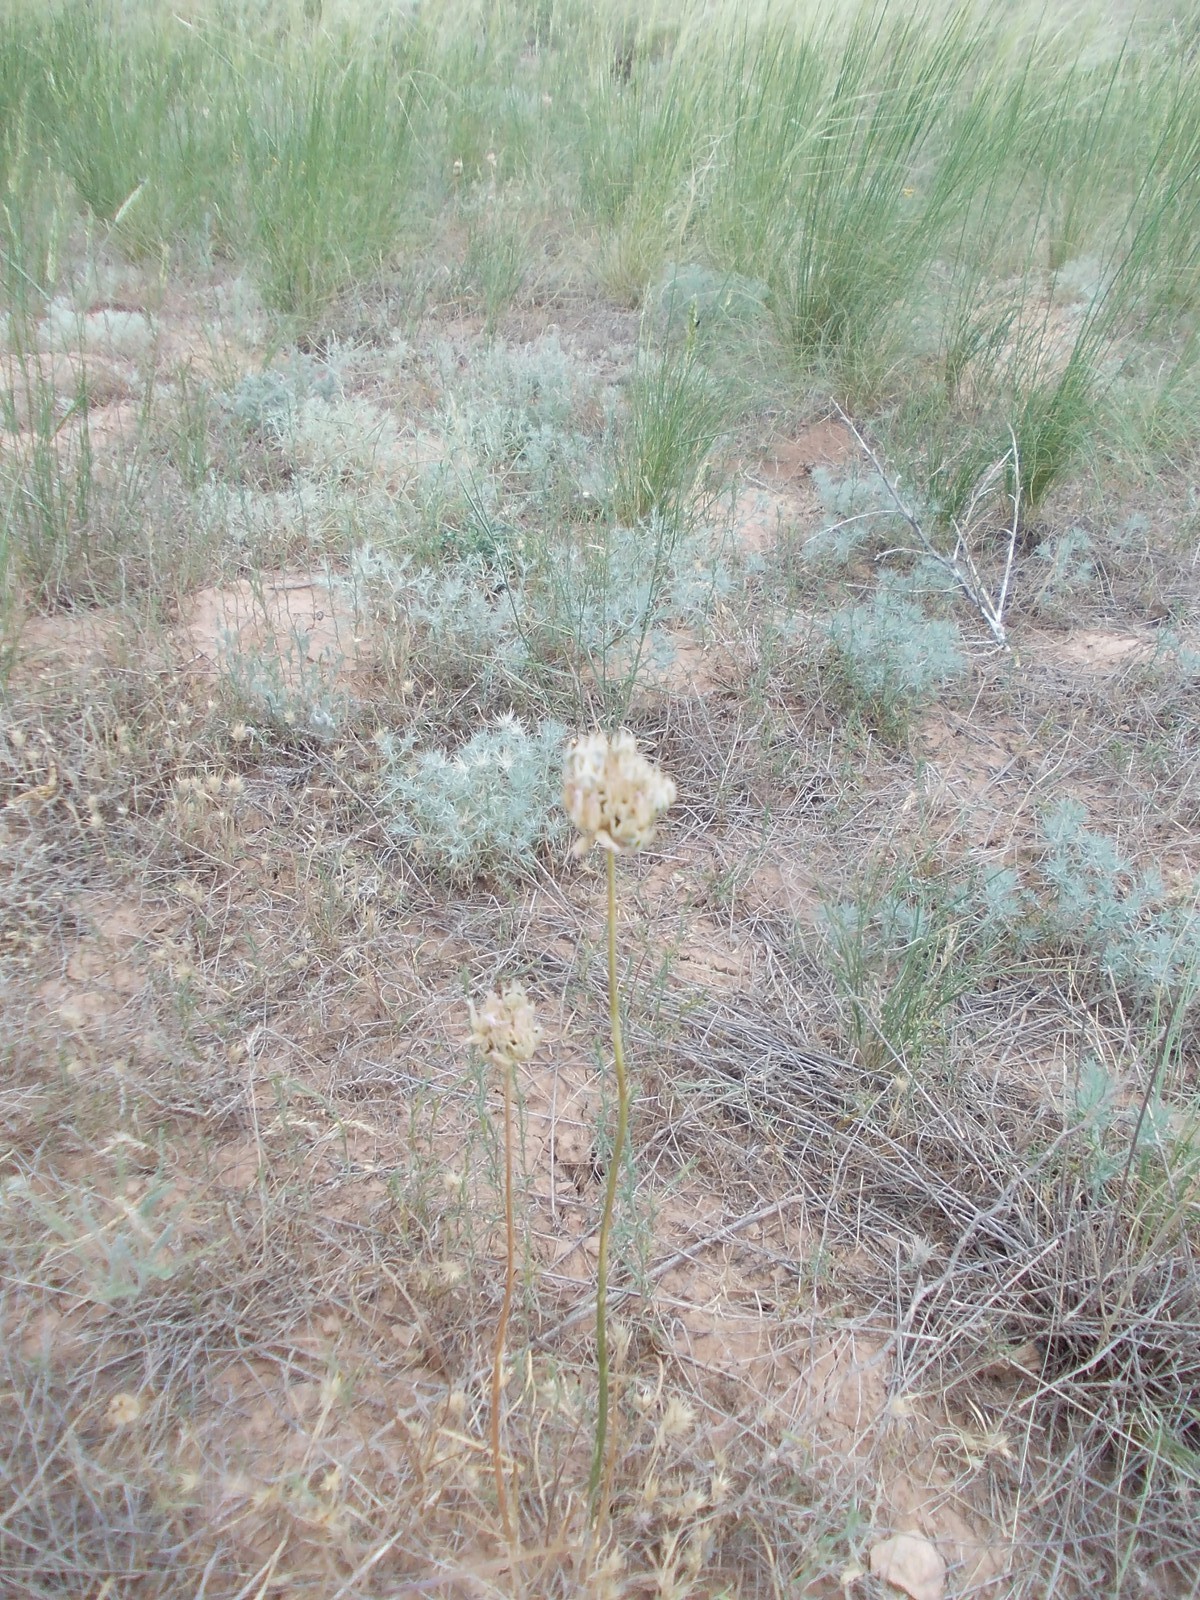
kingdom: Plantae
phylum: Tracheophyta
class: Liliopsida
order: Asparagales
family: Amaryllidaceae
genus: Allium
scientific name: Allium inderiense
